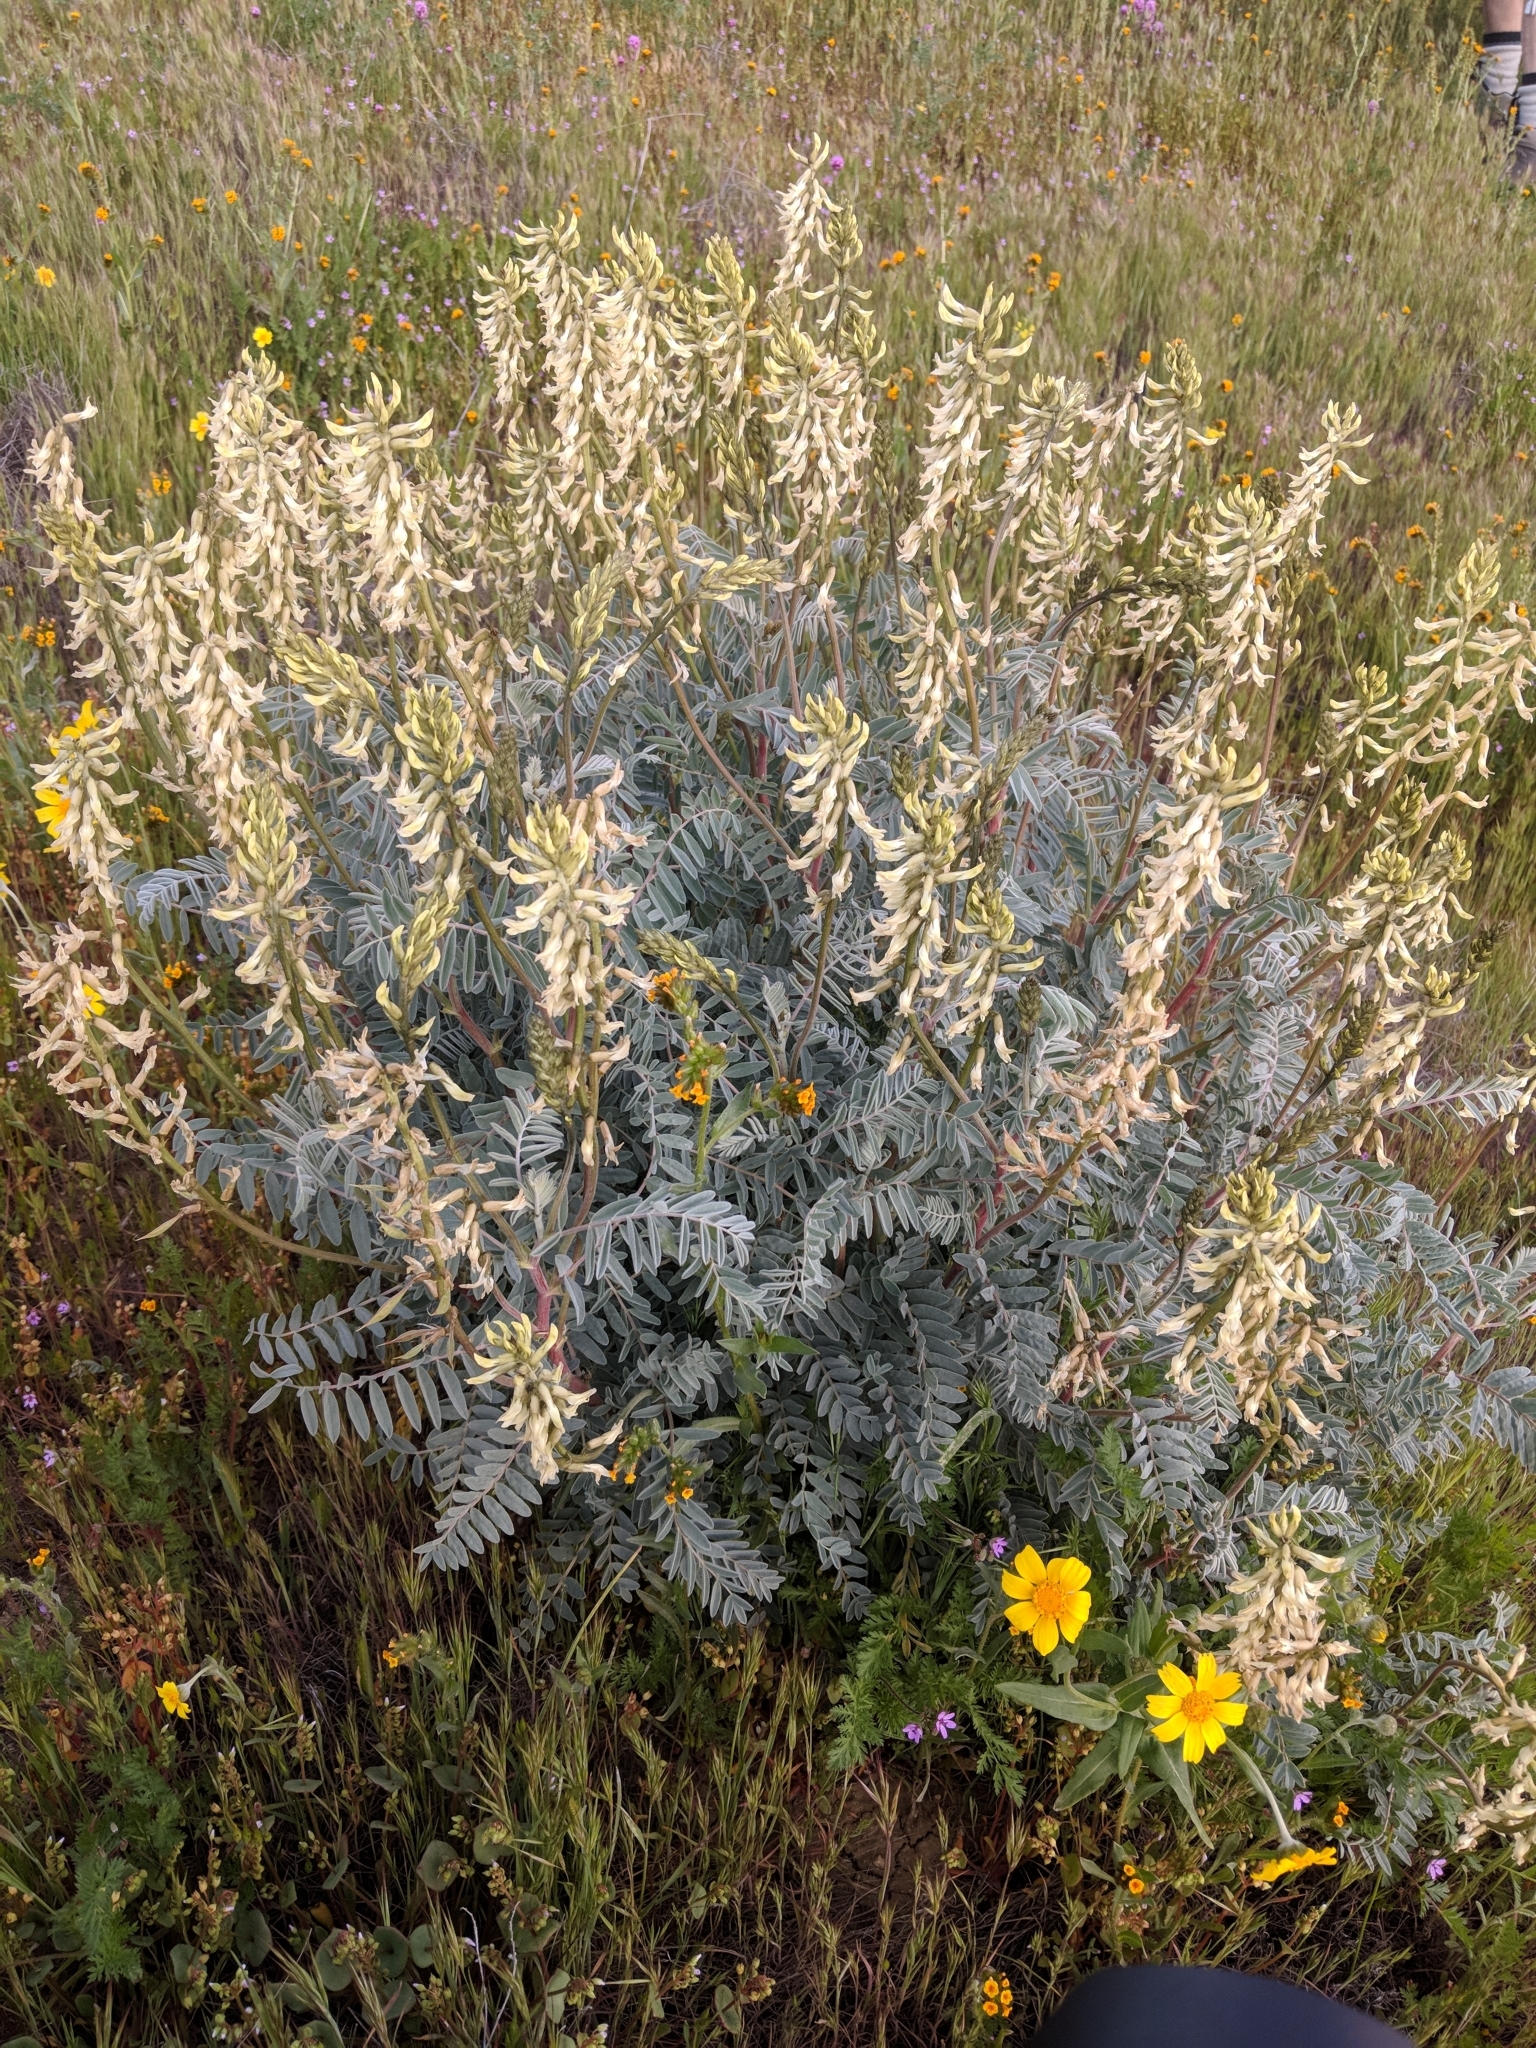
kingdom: Plantae
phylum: Tracheophyta
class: Magnoliopsida
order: Fabales
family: Fabaceae
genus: Astragalus
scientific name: Astragalus oxyphysus
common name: Stanislaus milk-vetch
